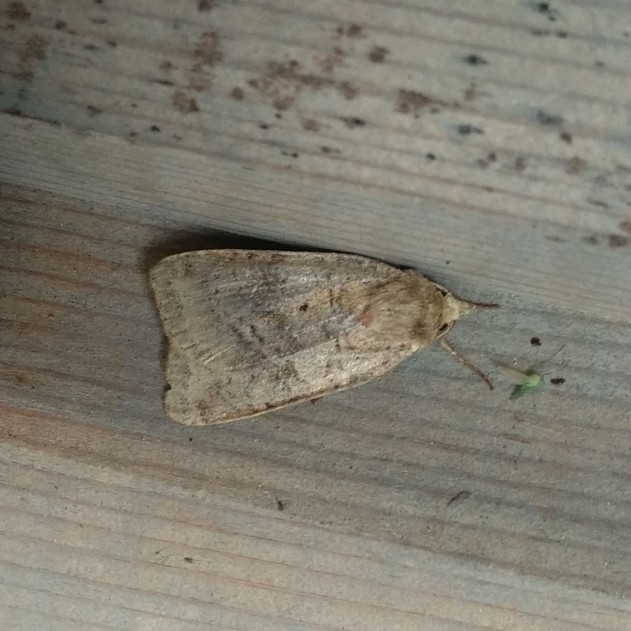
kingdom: Animalia
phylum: Arthropoda
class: Insecta
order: Lepidoptera
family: Noctuidae
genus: Diarsia
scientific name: Diarsia dahlii
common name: Barred chestnut
